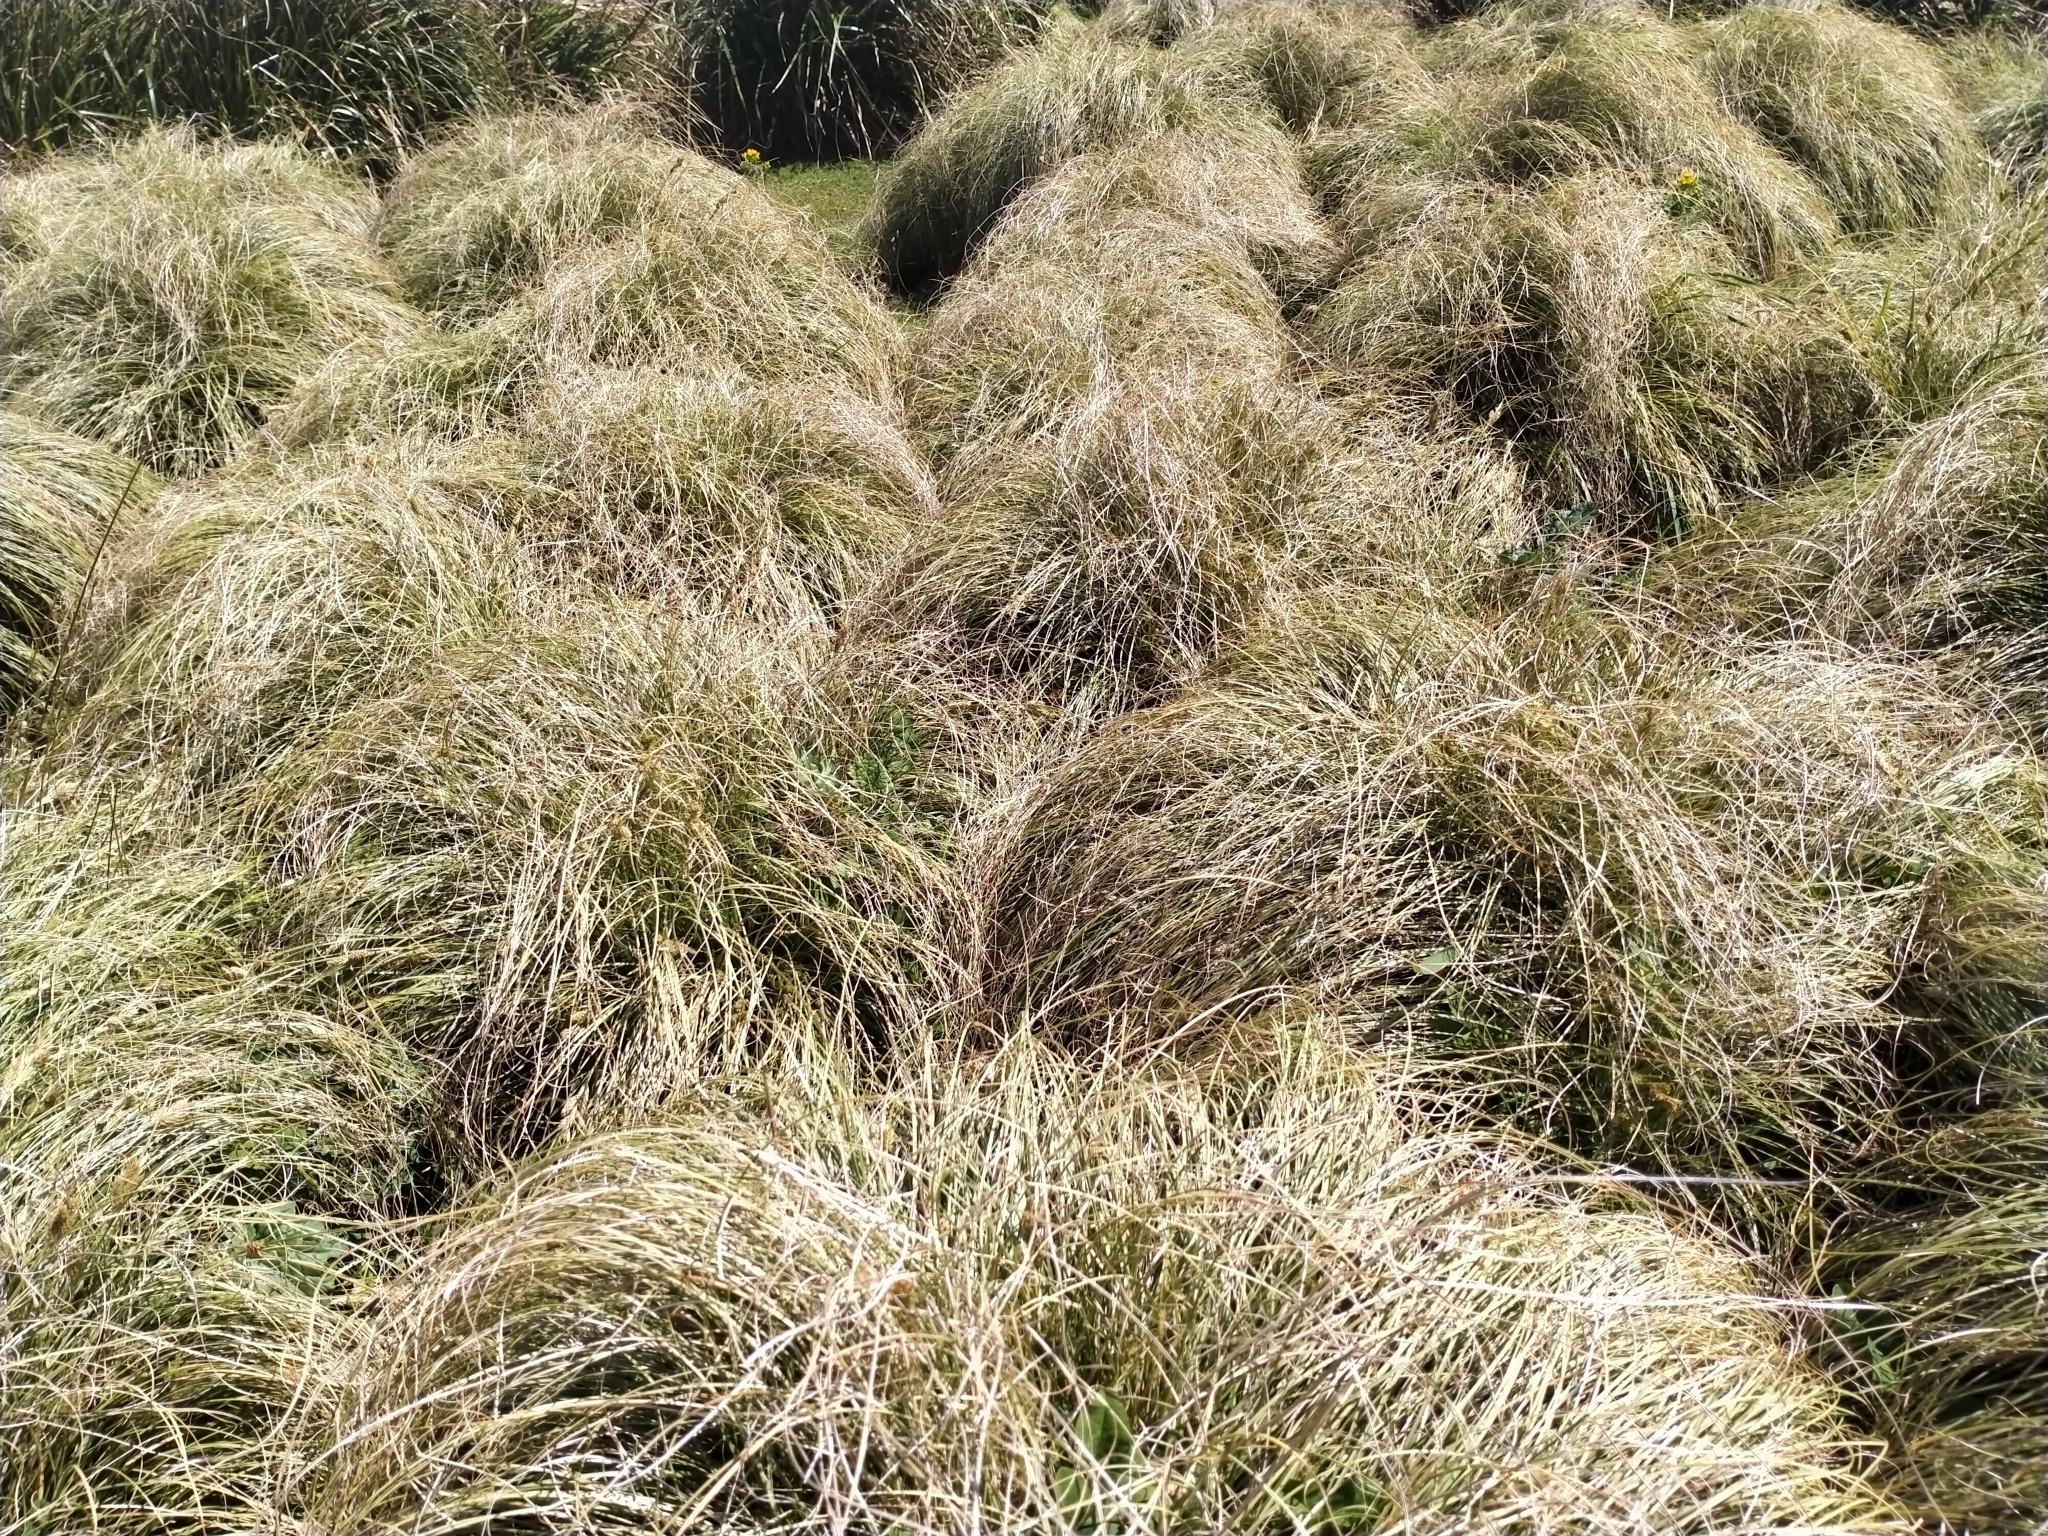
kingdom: Plantae
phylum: Tracheophyta
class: Liliopsida
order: Poales
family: Cyperaceae
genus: Carex
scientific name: Carex pleiostachys
